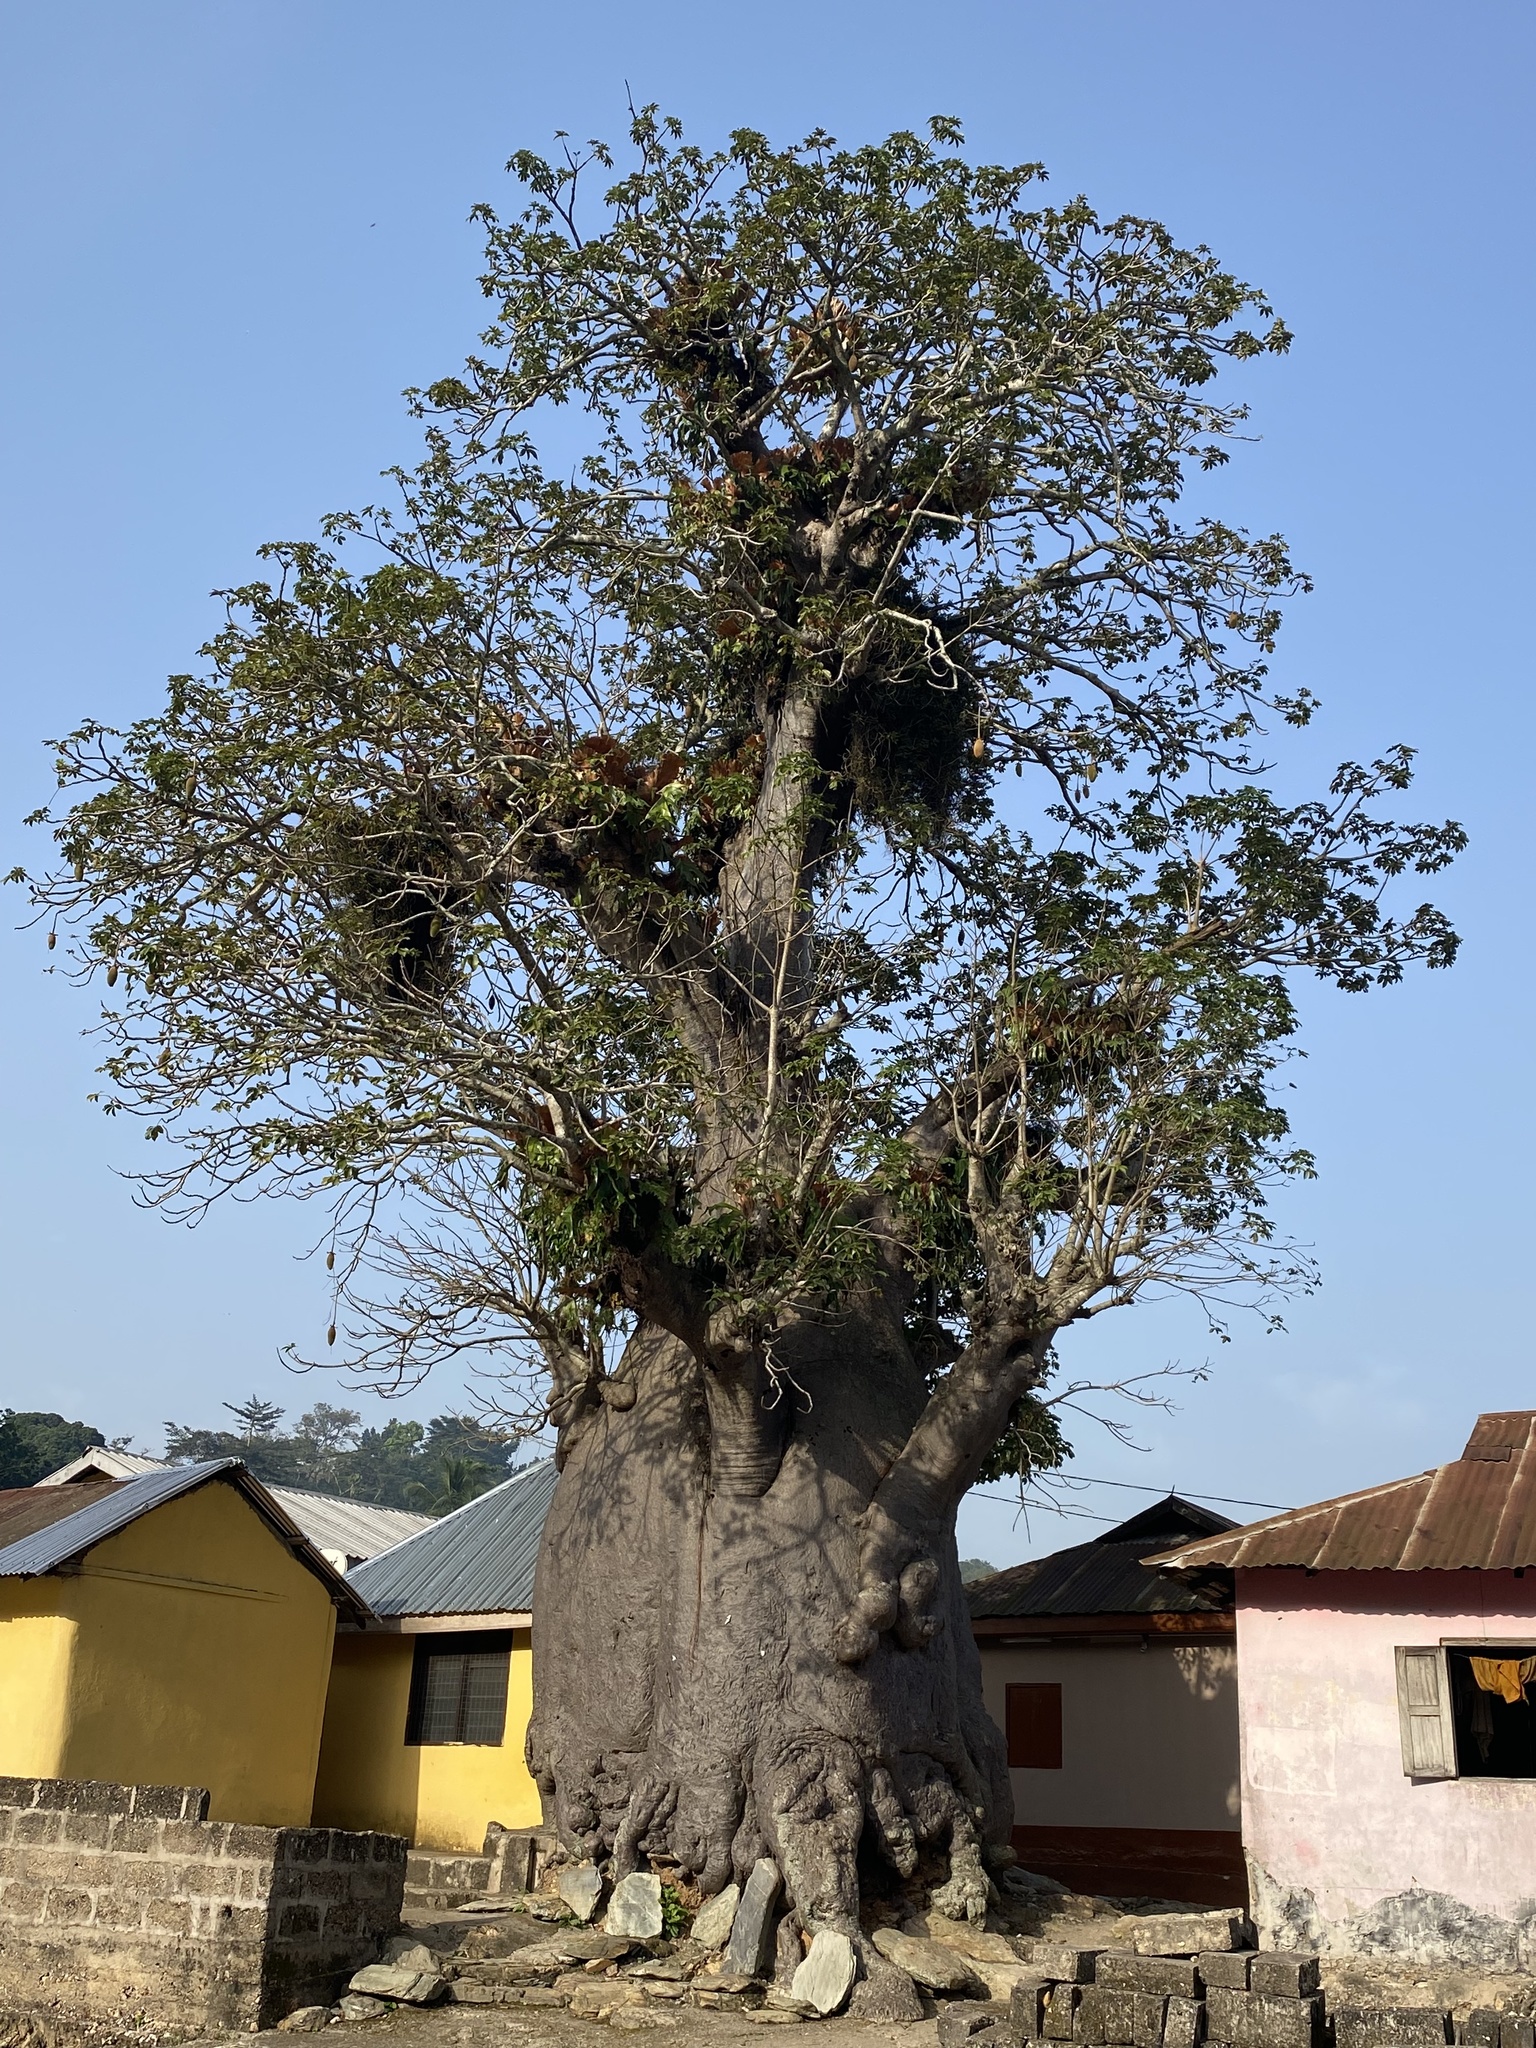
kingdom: Plantae
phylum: Tracheophyta
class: Magnoliopsida
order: Malvales
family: Malvaceae
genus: Adansonia
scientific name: Adansonia digitata
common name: Dead-rat-tree
